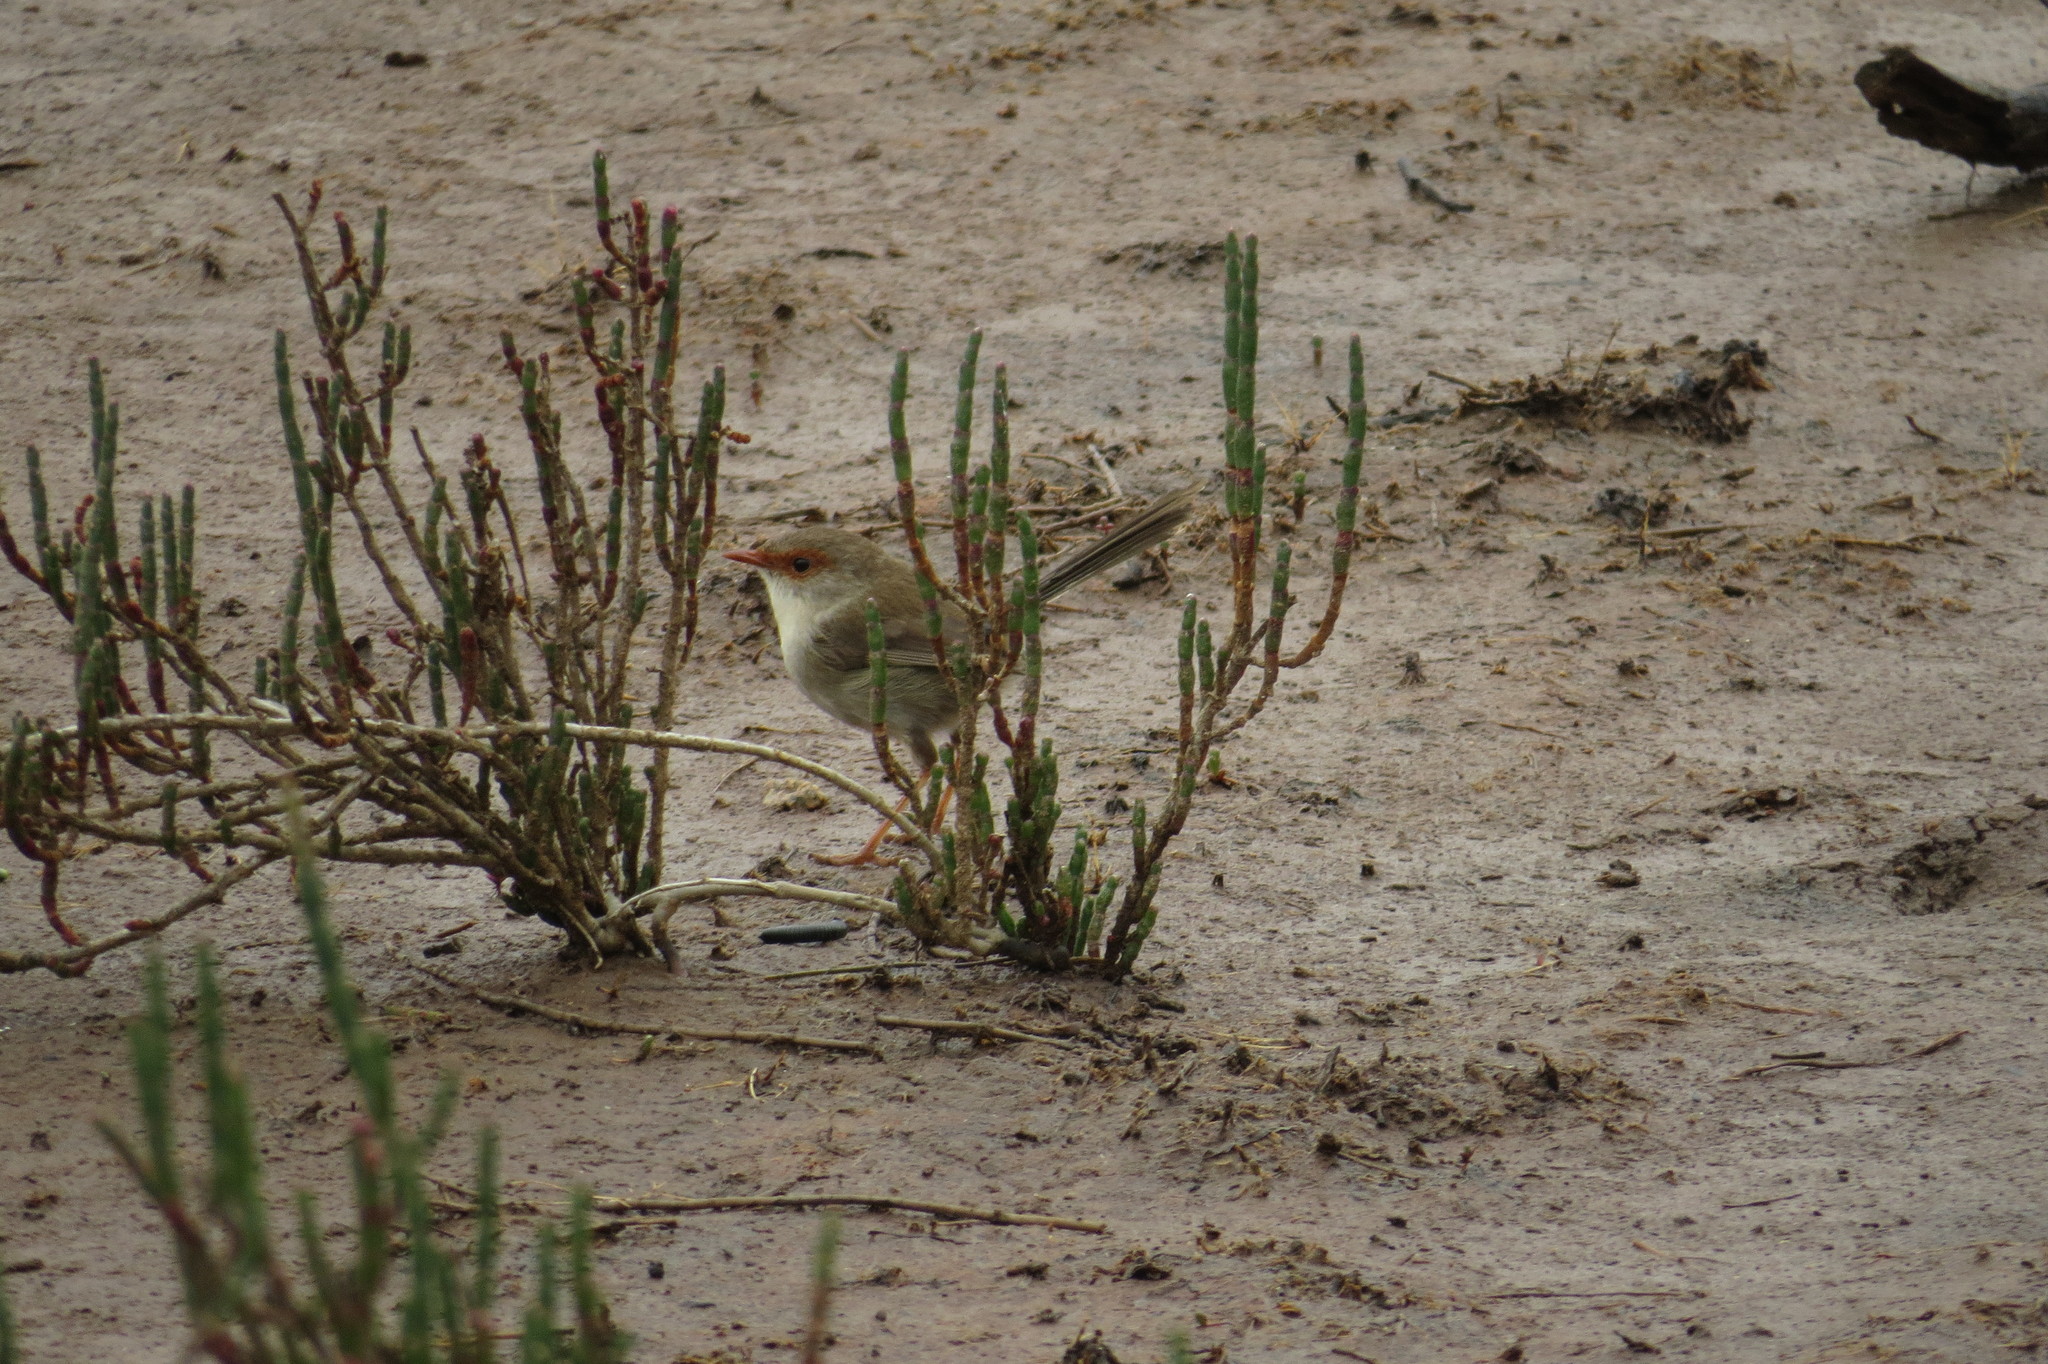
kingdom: Animalia
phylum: Chordata
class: Aves
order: Passeriformes
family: Maluridae
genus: Malurus
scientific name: Malurus cyaneus
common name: Superb fairywren
